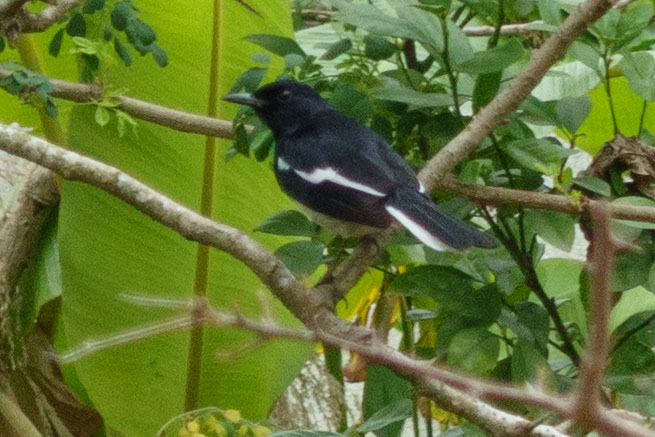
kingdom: Animalia
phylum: Chordata
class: Aves
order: Passeriformes
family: Muscicapidae
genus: Copsychus
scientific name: Copsychus saularis
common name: Oriental magpie-robin
